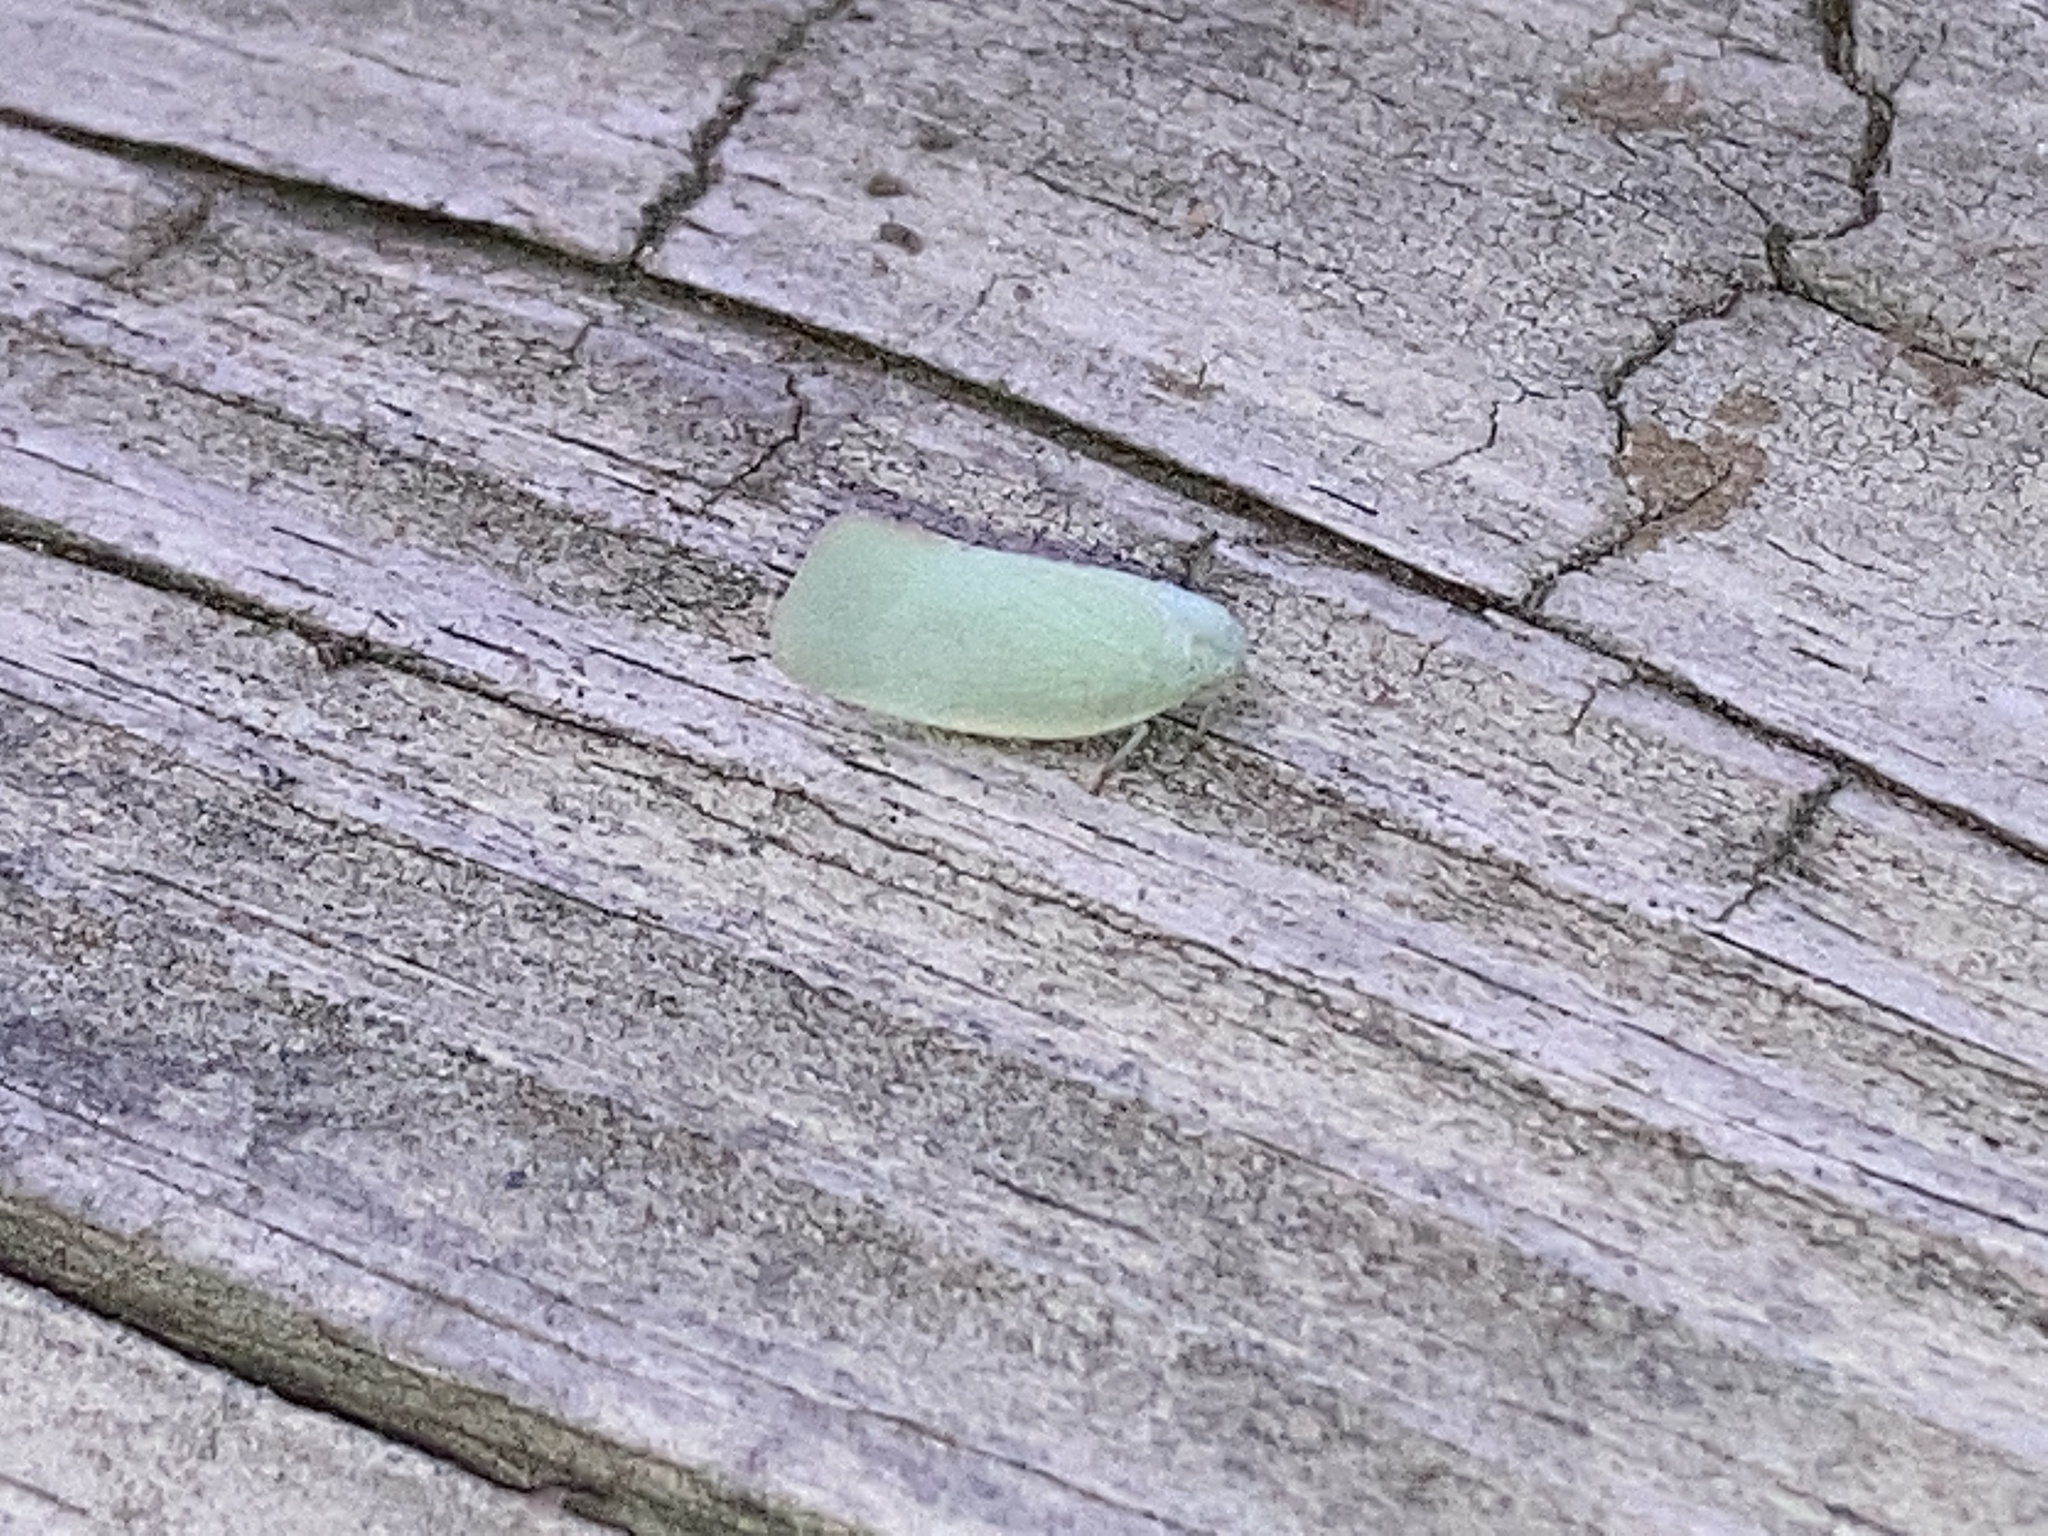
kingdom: Animalia
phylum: Arthropoda
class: Insecta
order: Hemiptera
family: Flatidae
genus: Flatormenis
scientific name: Flatormenis proxima
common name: Northern flatid planthopper
